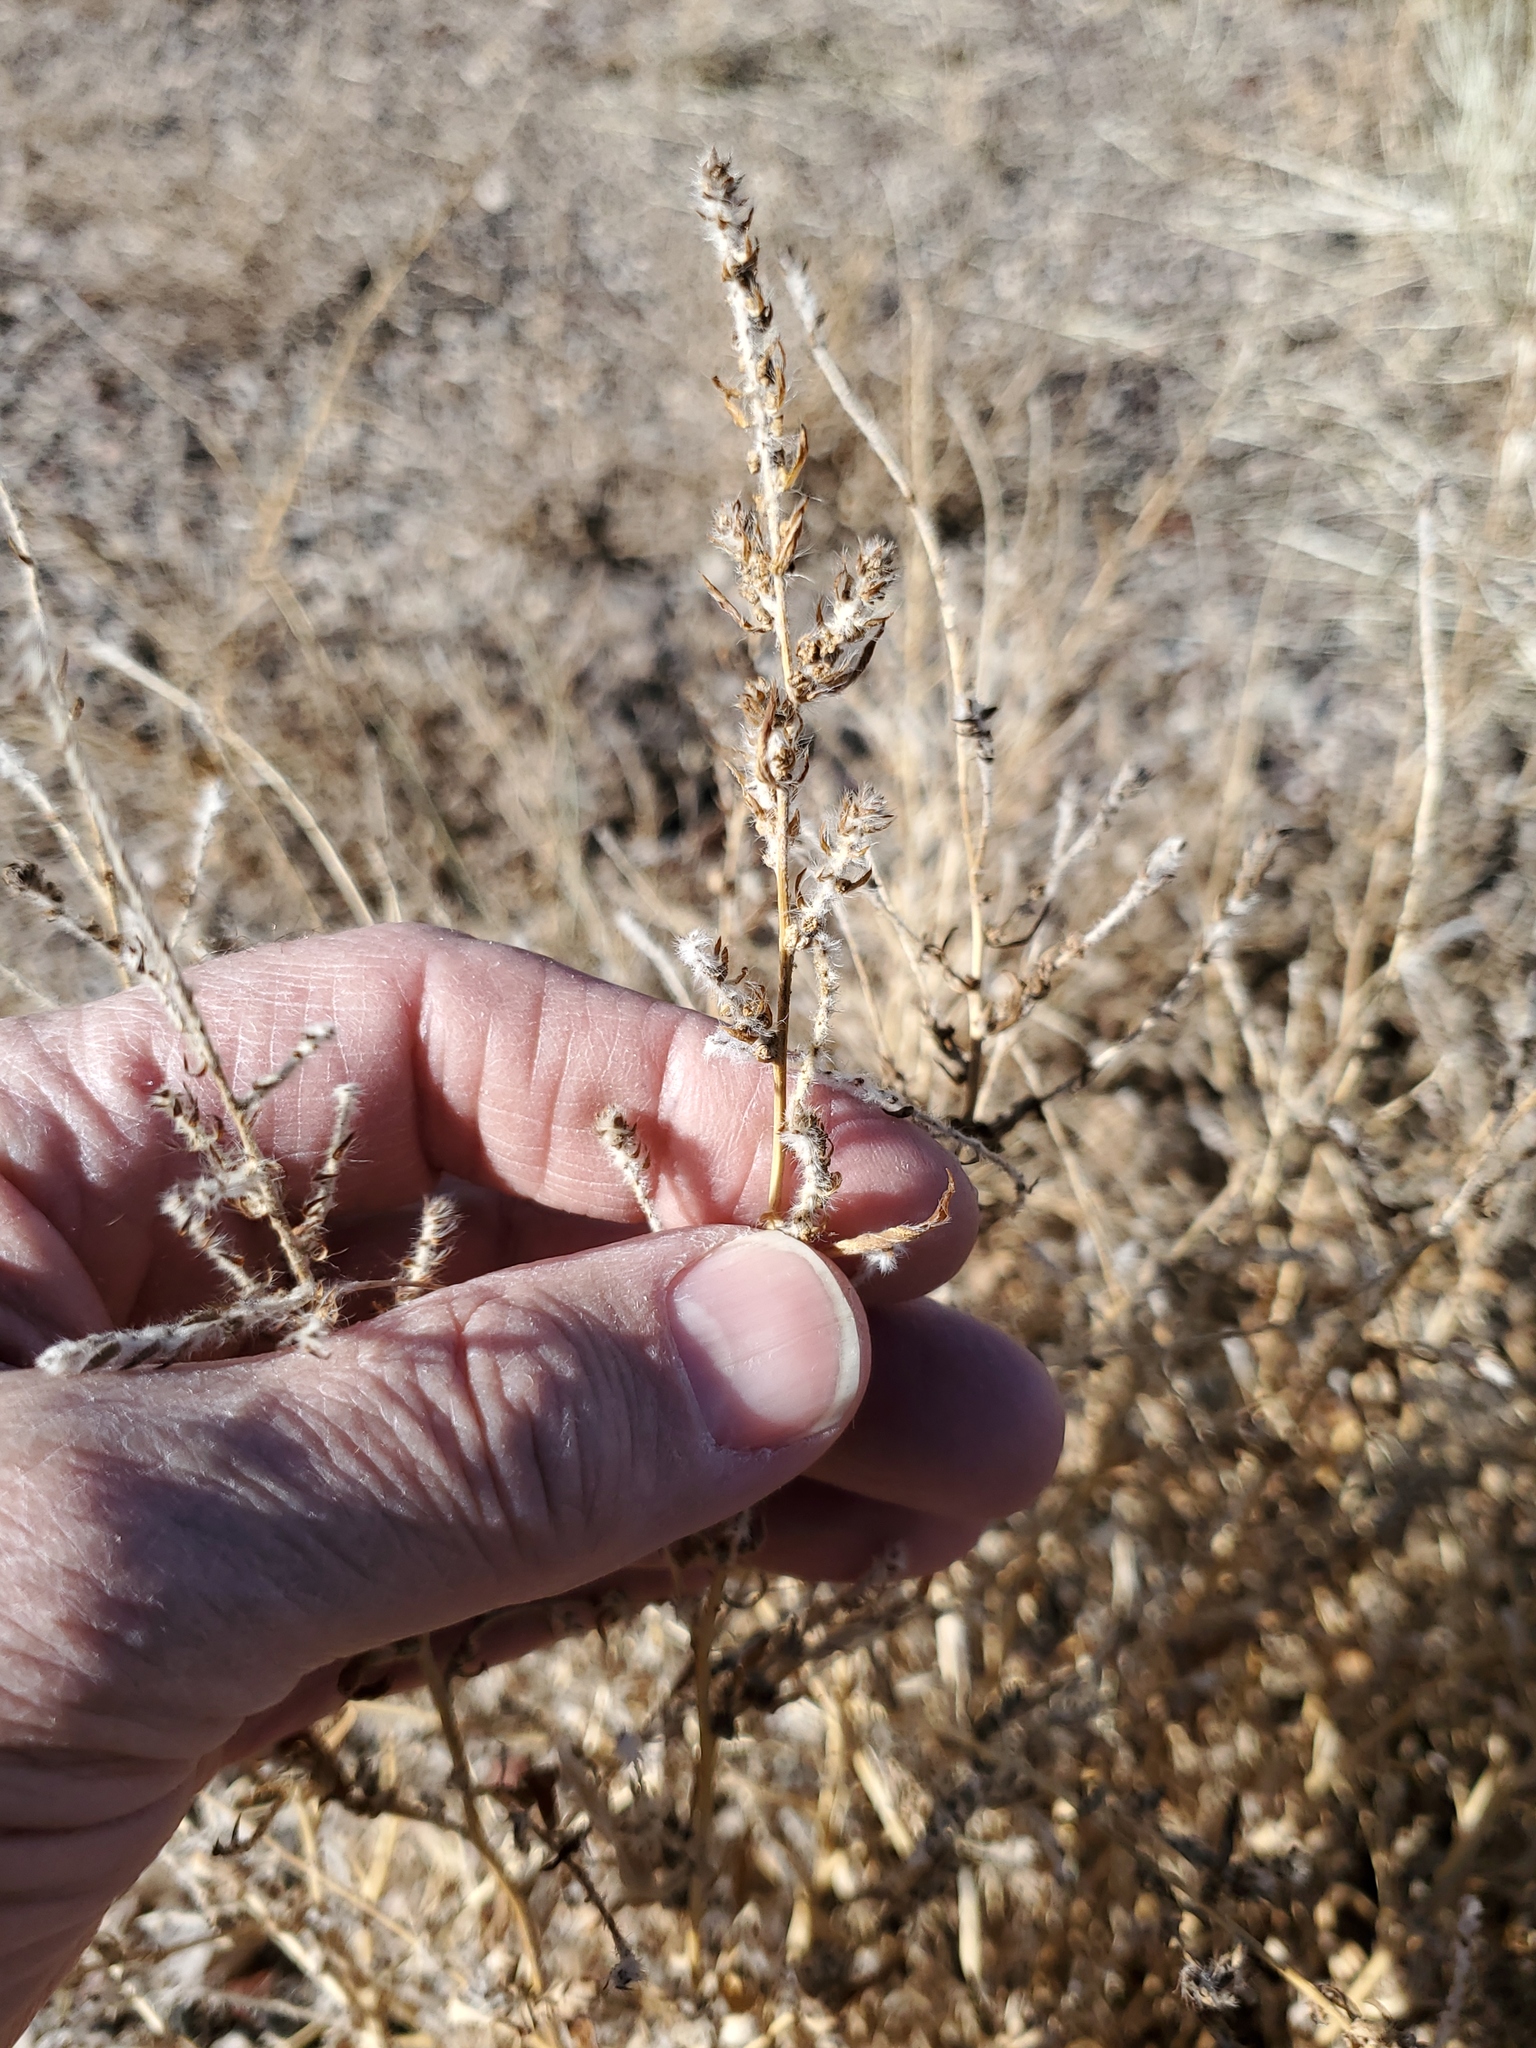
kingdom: Plantae
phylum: Tracheophyta
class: Magnoliopsida
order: Caryophyllales
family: Amaranthaceae
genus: Bassia
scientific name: Bassia scoparia
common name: Belvedere
